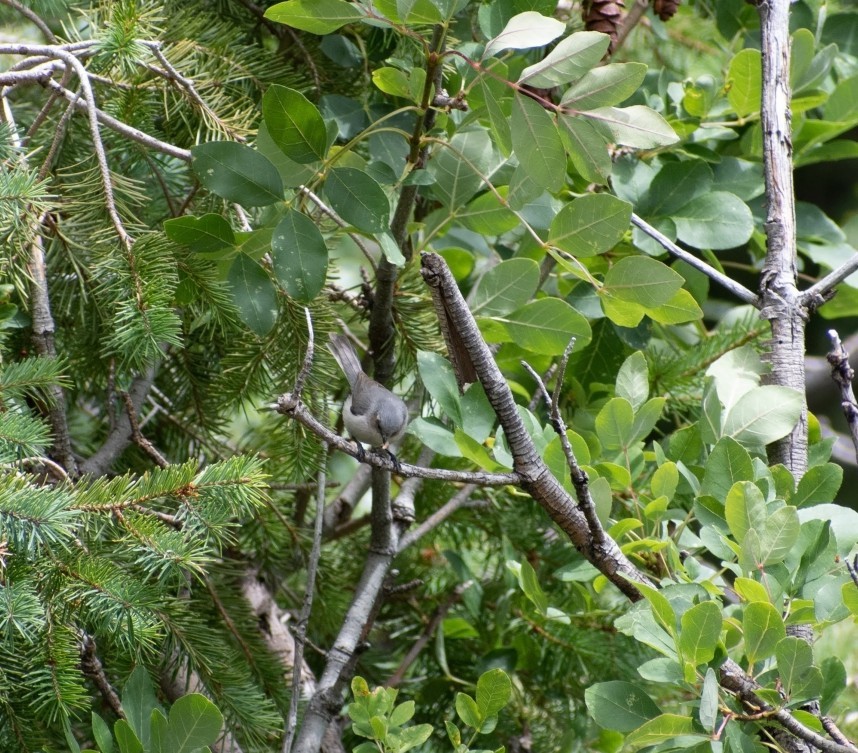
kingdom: Animalia
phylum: Chordata
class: Aves
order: Passeriformes
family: Aegithalidae
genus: Psaltriparus
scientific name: Psaltriparus minimus
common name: American bushtit
